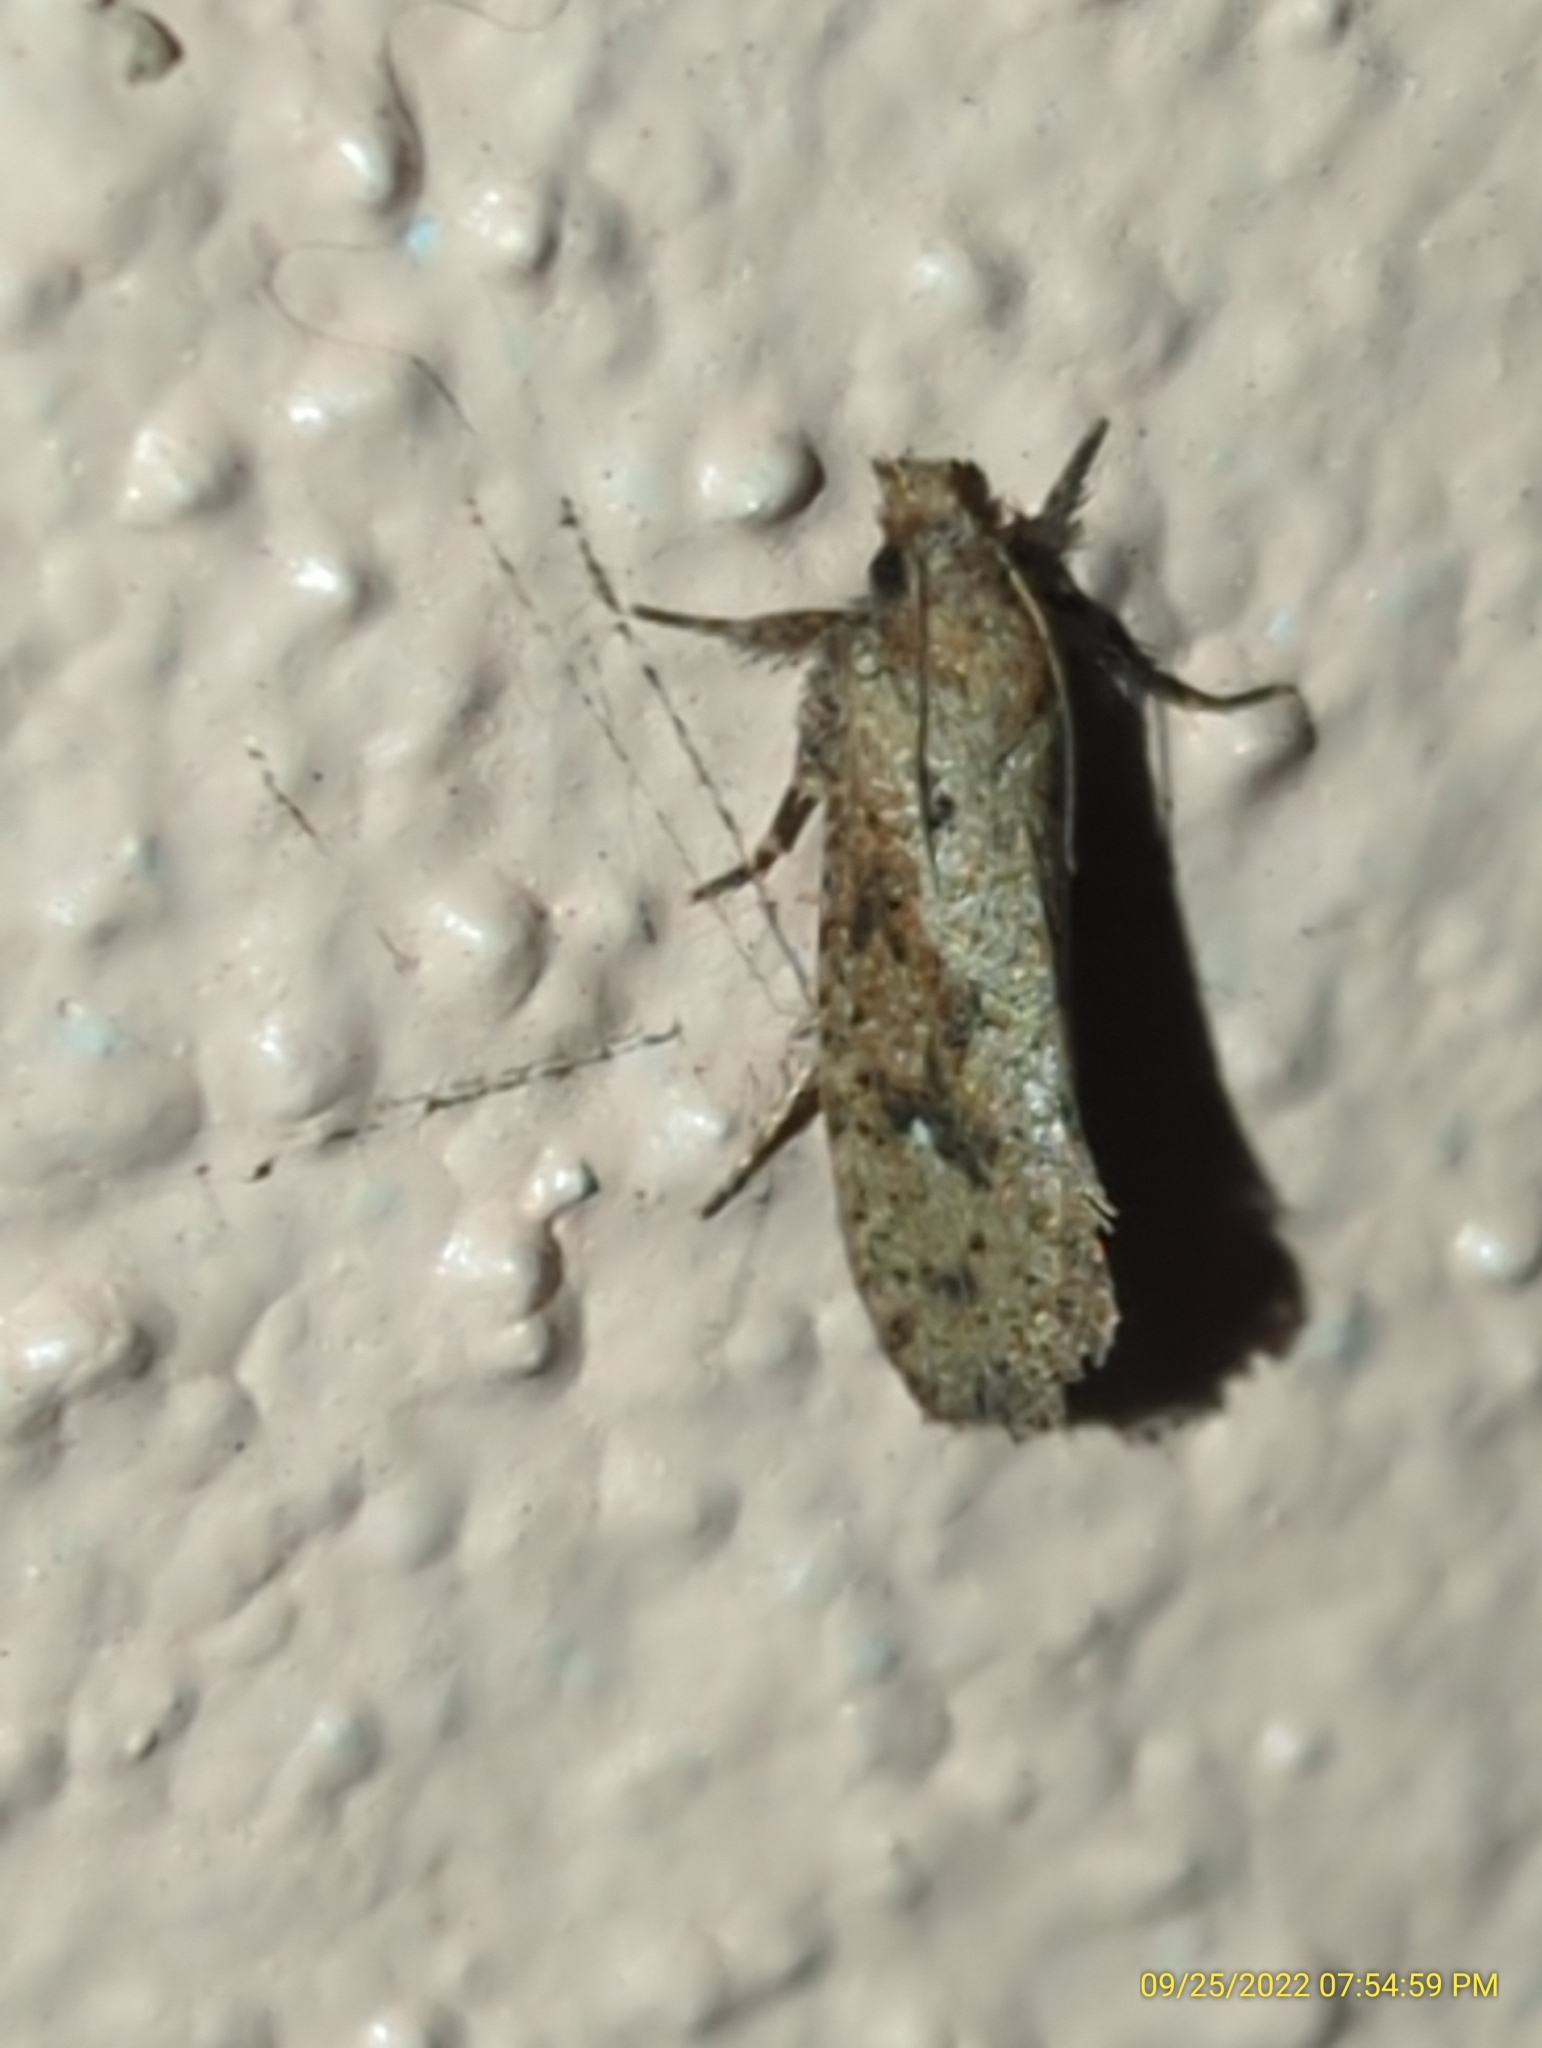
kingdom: Animalia
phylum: Arthropoda
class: Insecta
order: Lepidoptera
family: Tineidae
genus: Acrolophus
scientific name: Acrolophus walsinghami
